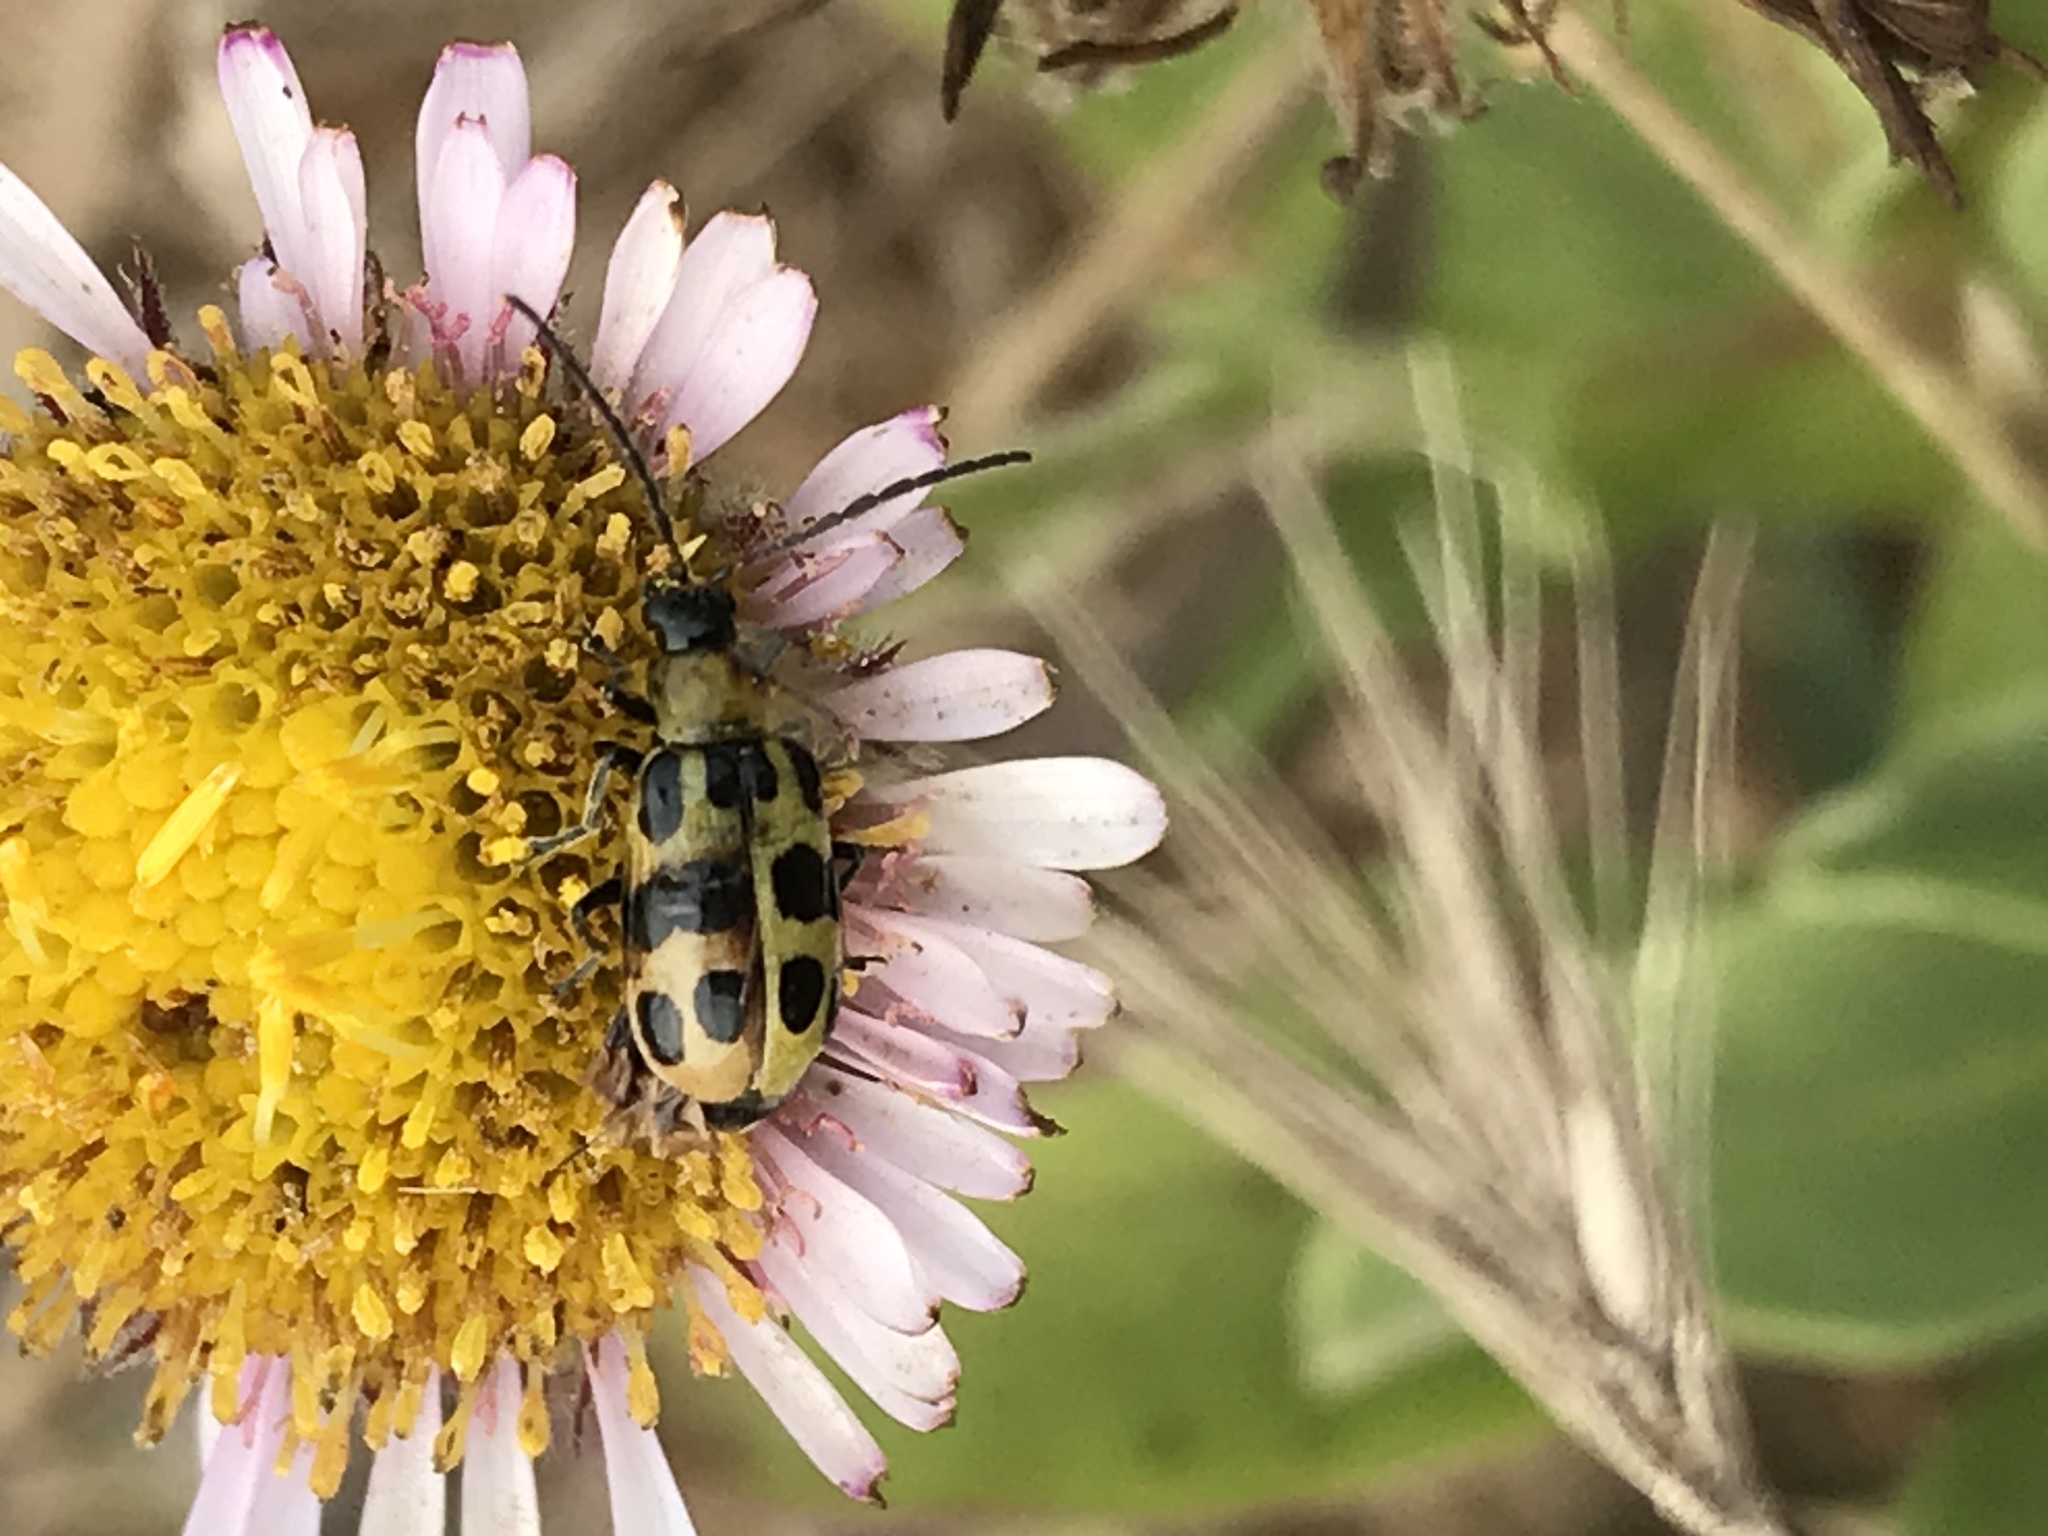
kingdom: Animalia
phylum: Arthropoda
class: Insecta
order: Coleoptera
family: Chrysomelidae
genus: Diabrotica
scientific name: Diabrotica undecimpunctata
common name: Spotted cucumber beetle
